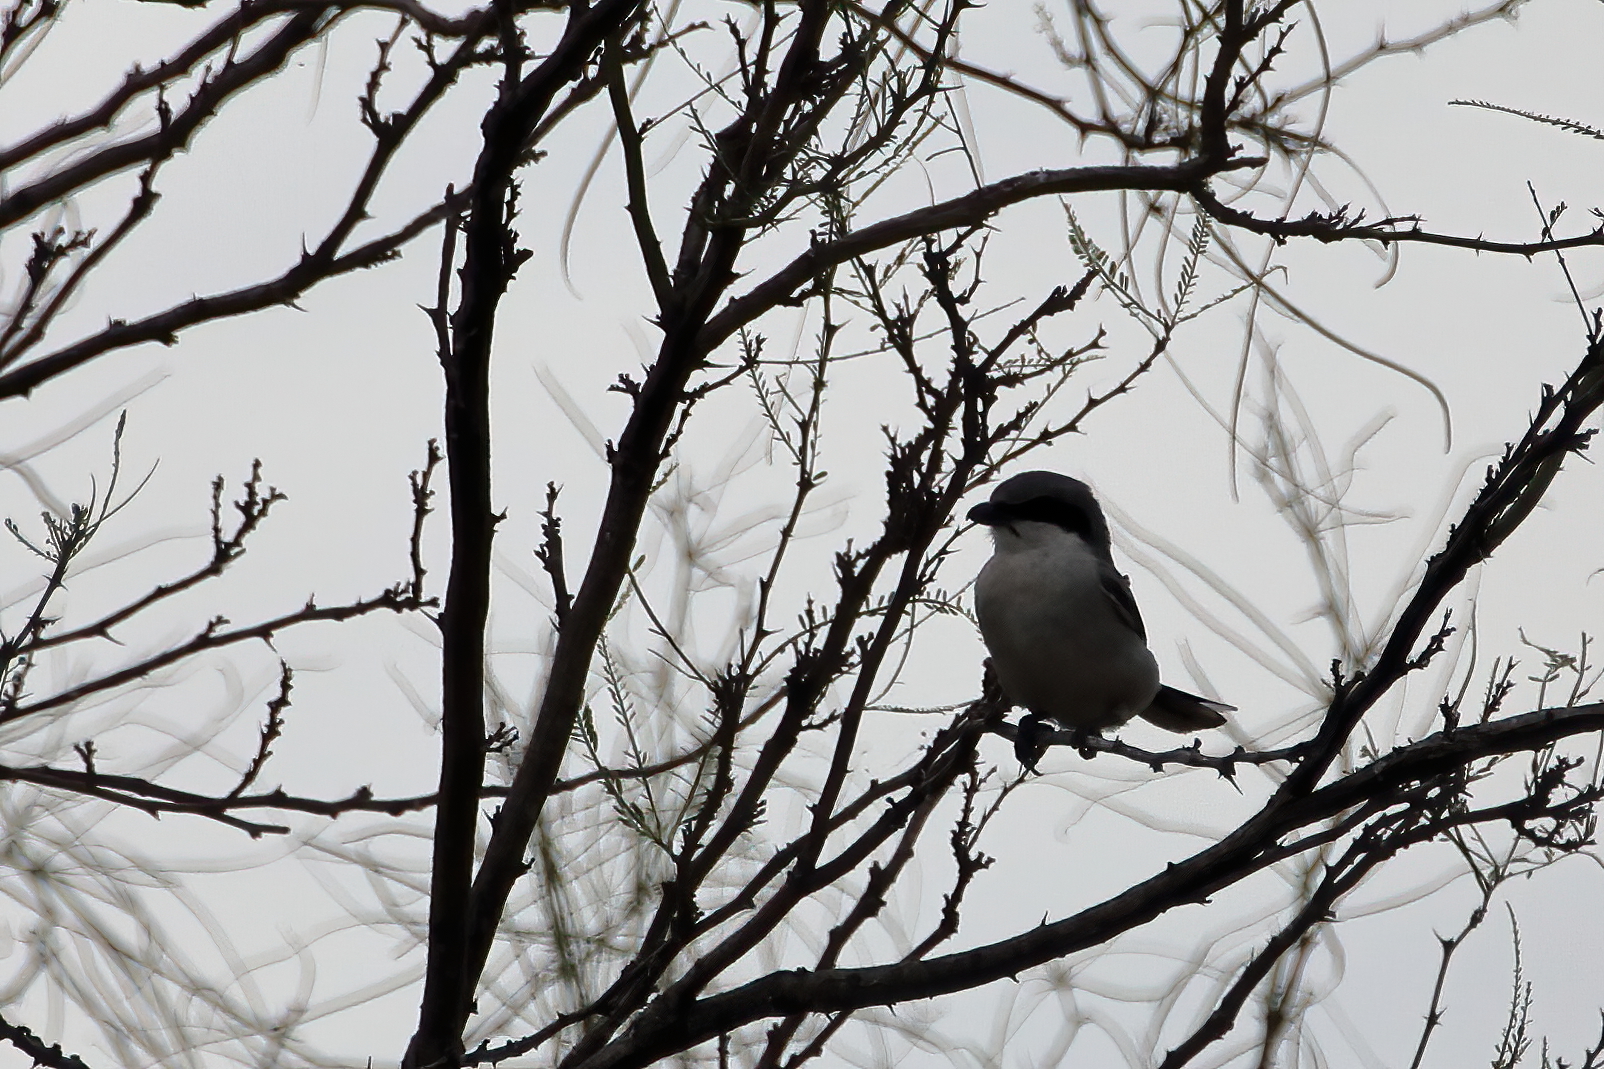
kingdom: Animalia
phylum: Chordata
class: Aves
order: Passeriformes
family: Laniidae
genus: Lanius
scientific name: Lanius ludovicianus
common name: Loggerhead shrike
